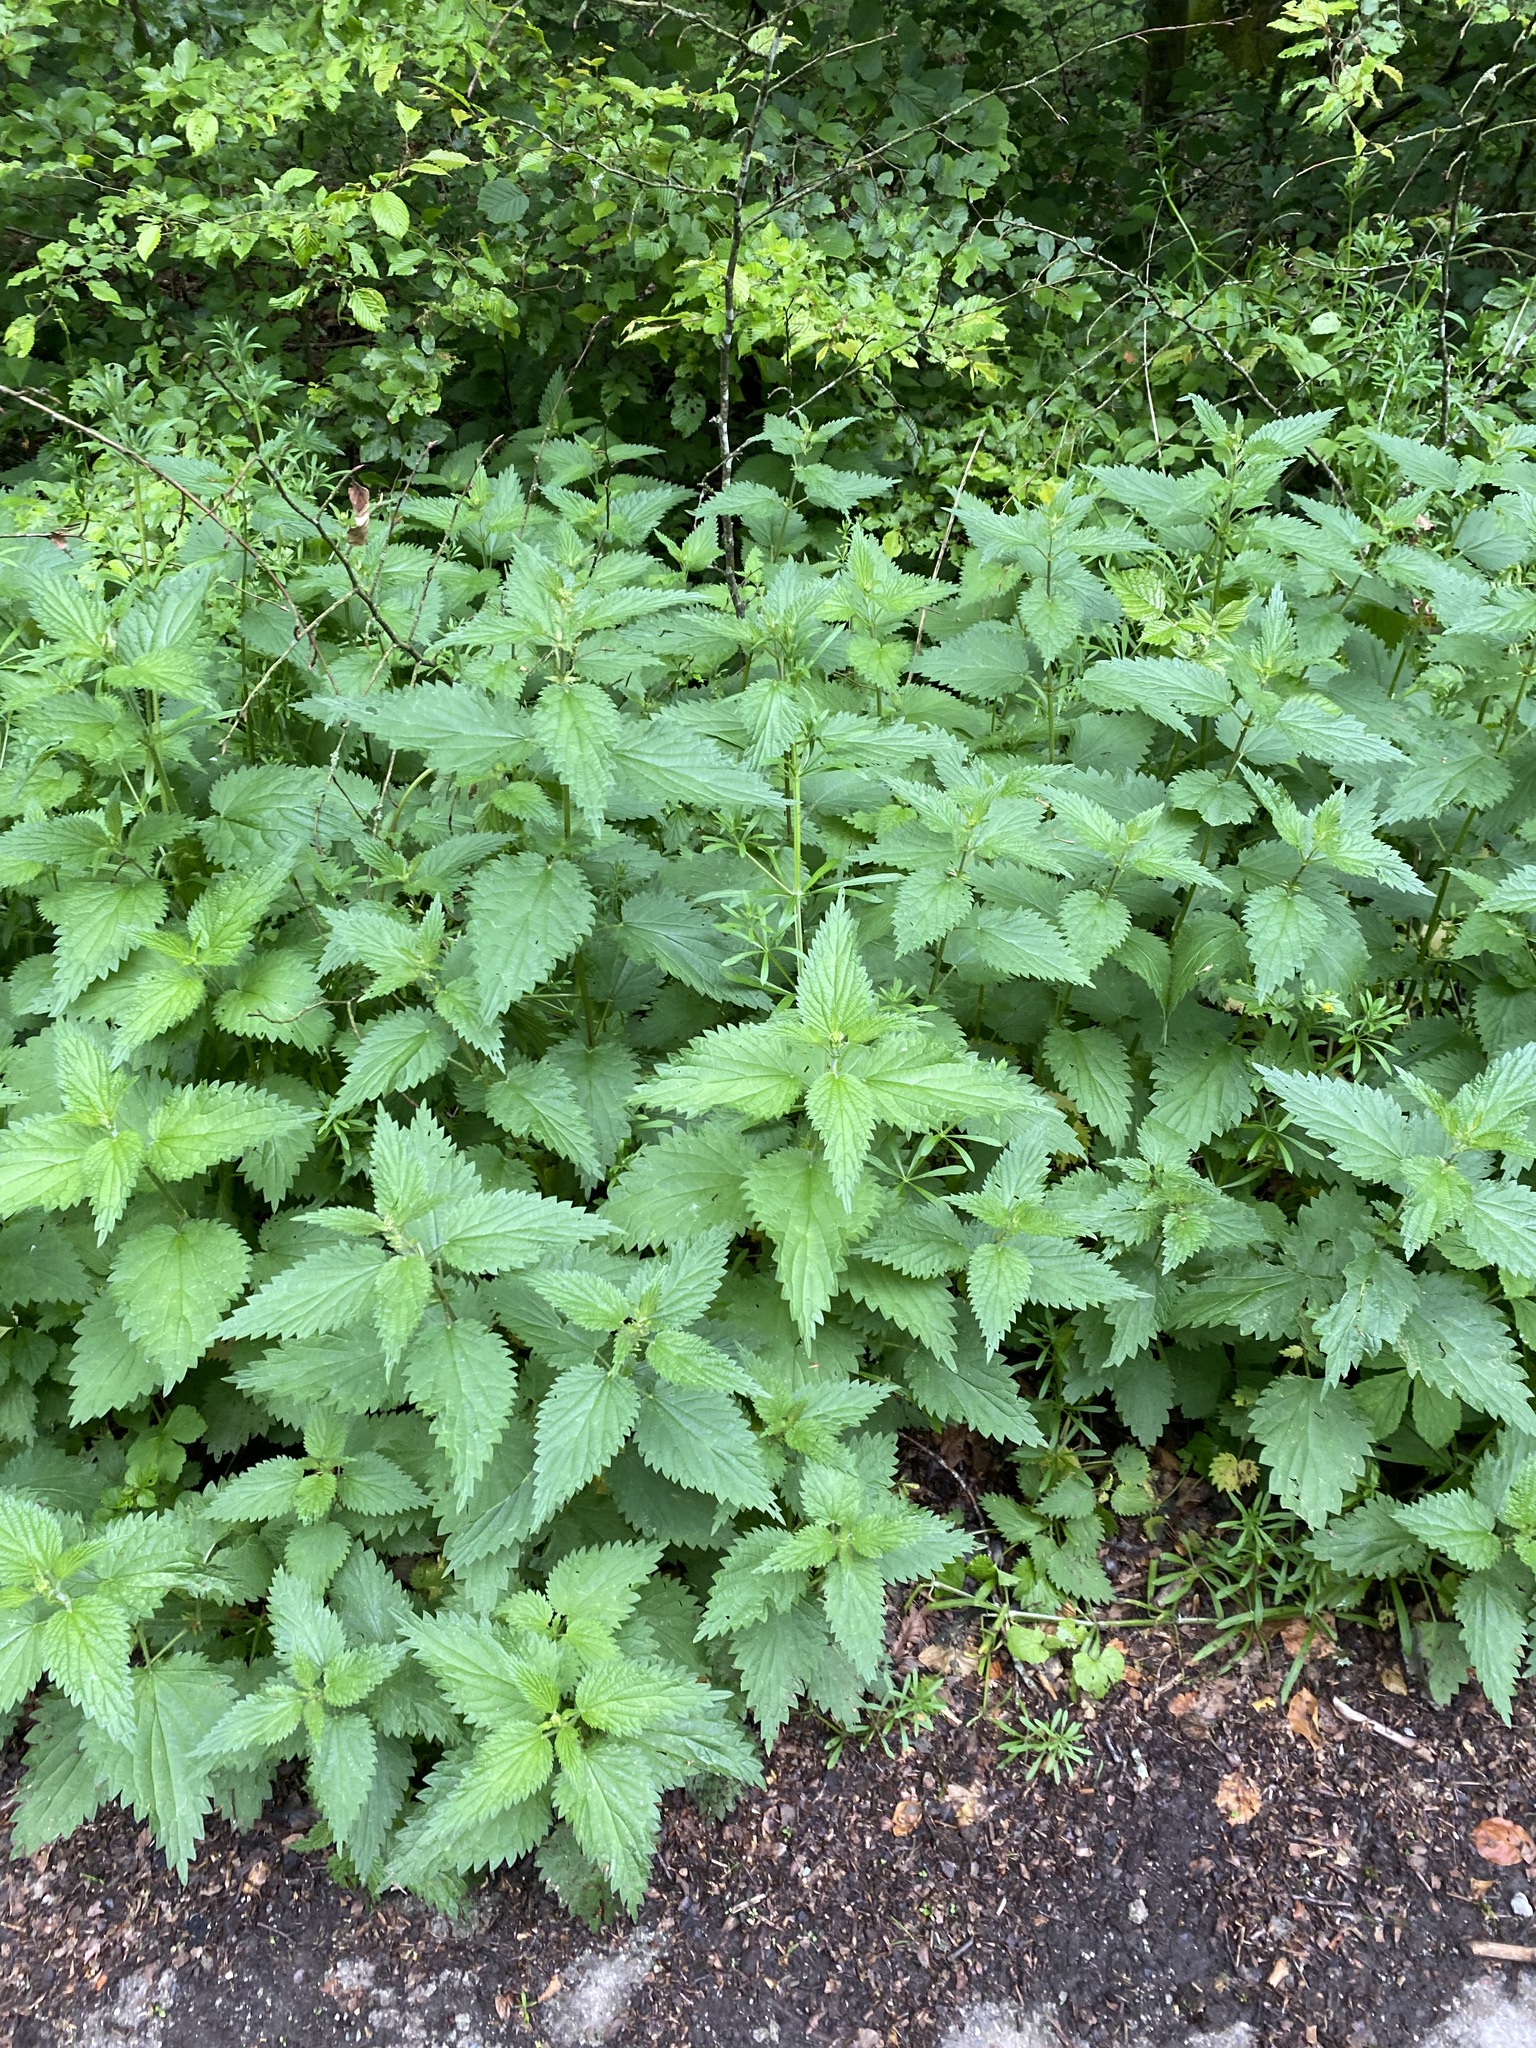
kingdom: Plantae
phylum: Tracheophyta
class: Magnoliopsida
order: Rosales
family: Urticaceae
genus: Urtica
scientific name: Urtica dioica
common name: Common nettle
